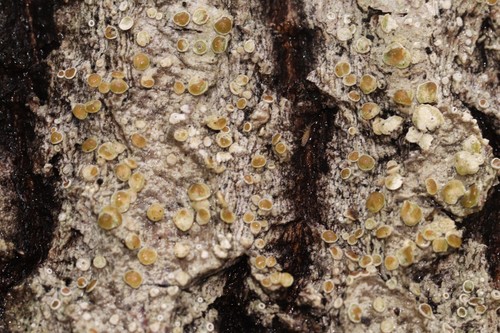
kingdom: Fungi
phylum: Ascomycota
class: Lecanoromycetes
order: Lecanorales
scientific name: Lecanorales
